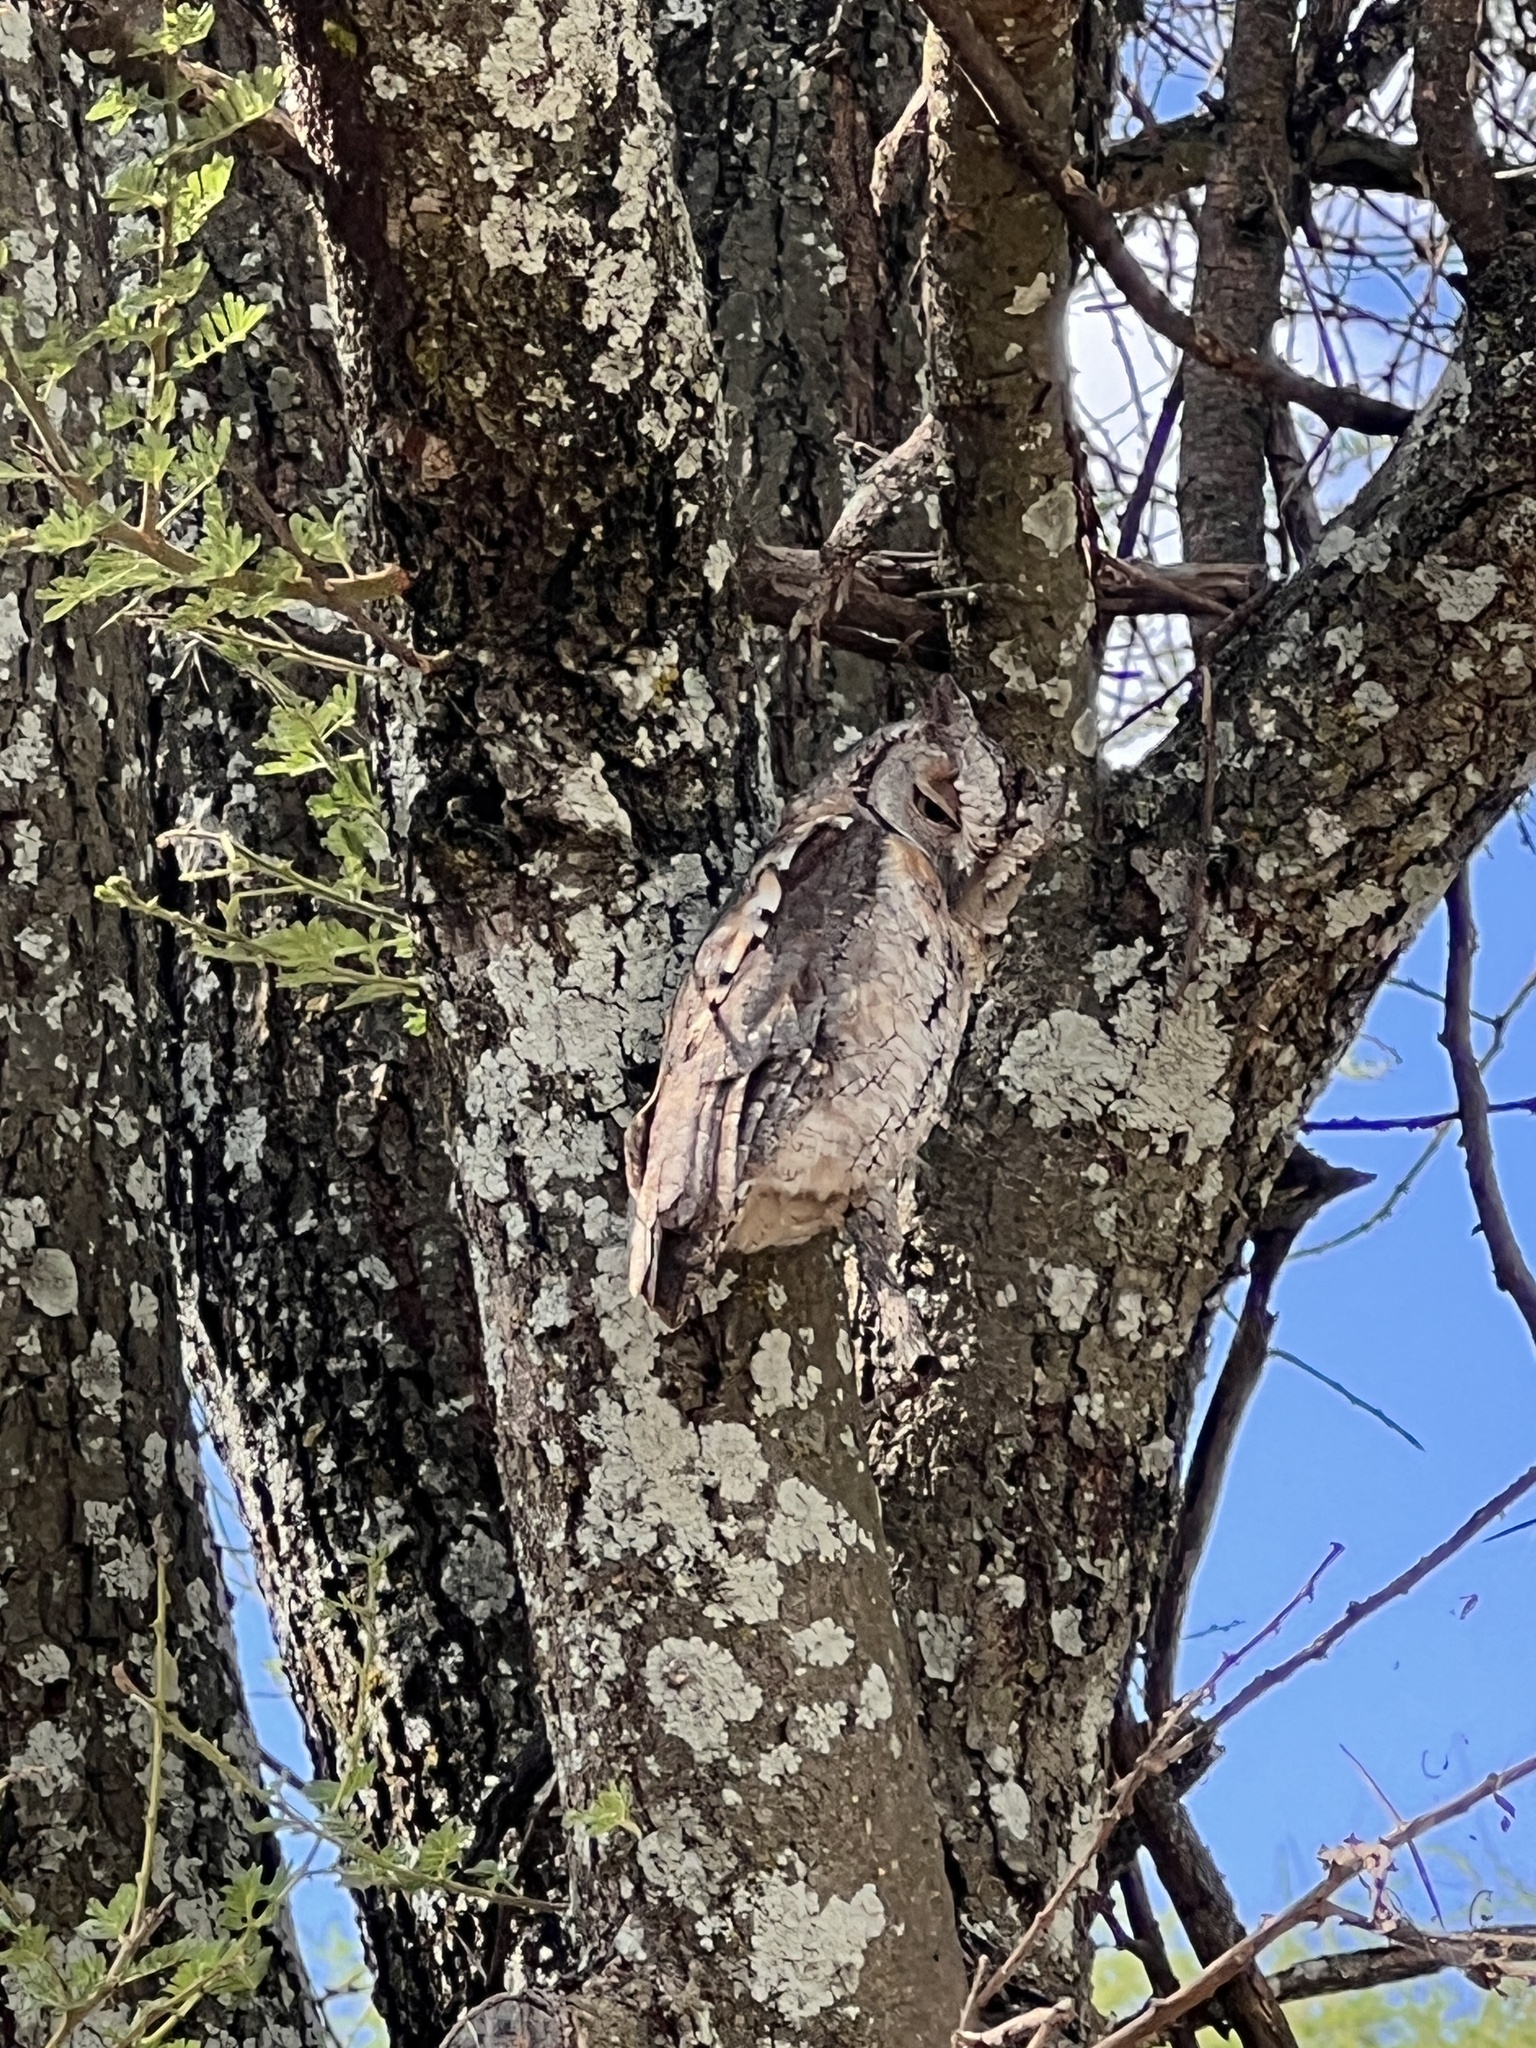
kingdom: Animalia
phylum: Chordata
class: Aves
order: Strigiformes
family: Strigidae
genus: Otus
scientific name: Otus senegalensis
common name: African scops owl
